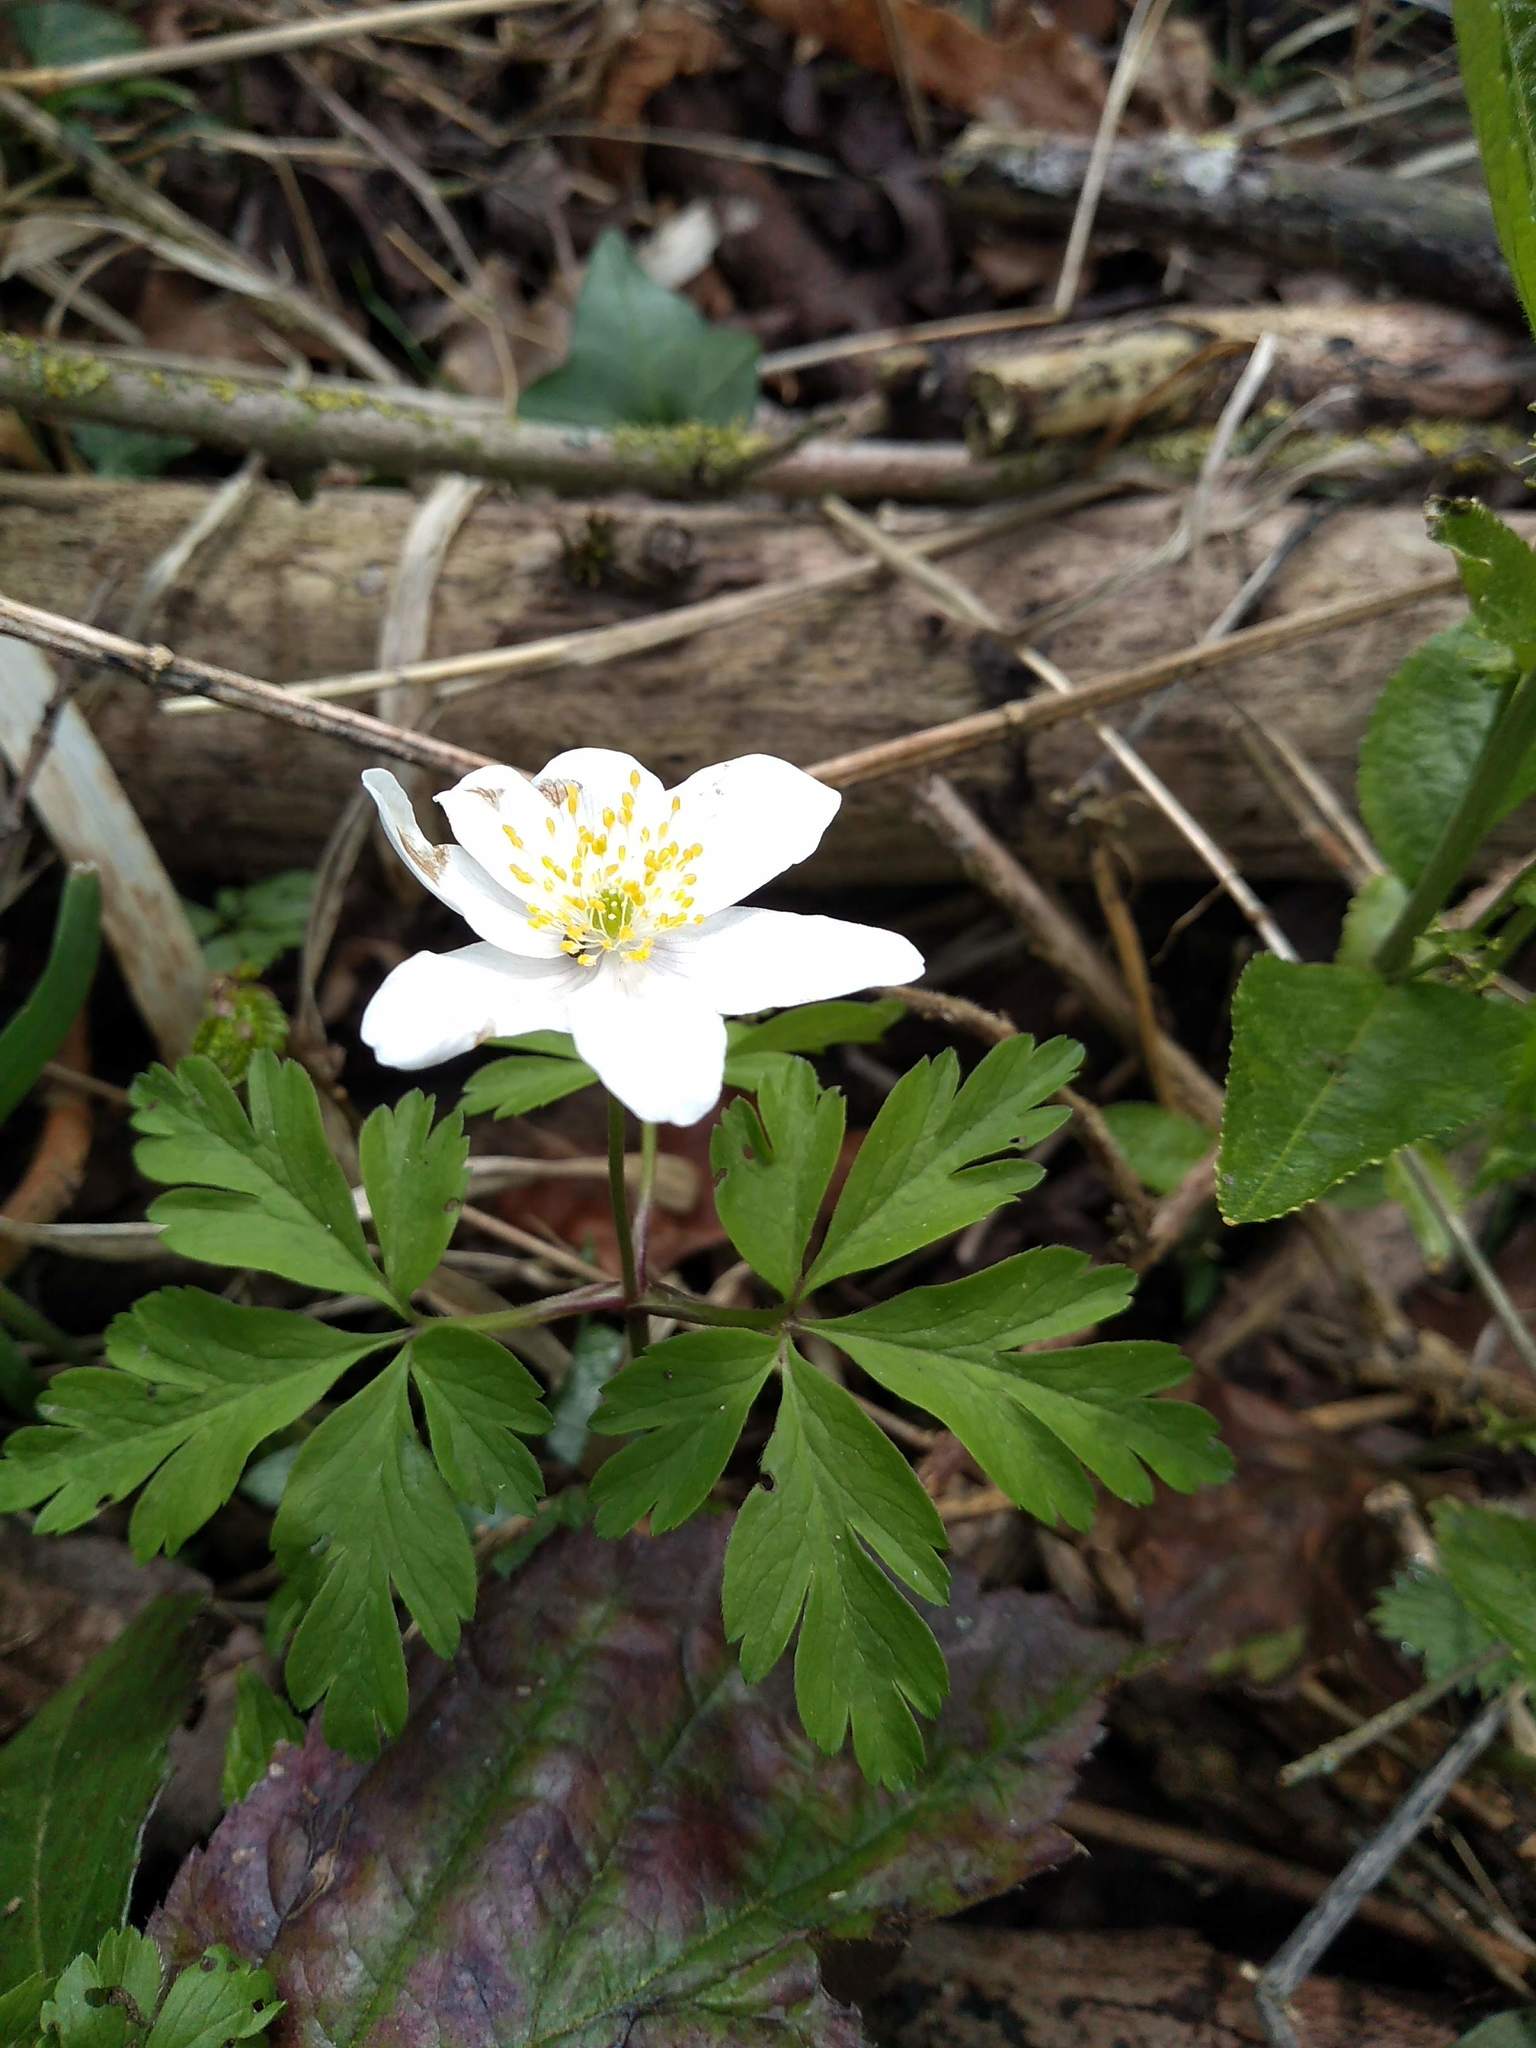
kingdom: Plantae
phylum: Tracheophyta
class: Magnoliopsida
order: Ranunculales
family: Ranunculaceae
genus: Anemone
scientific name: Anemone nemorosa
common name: Wood anemone
